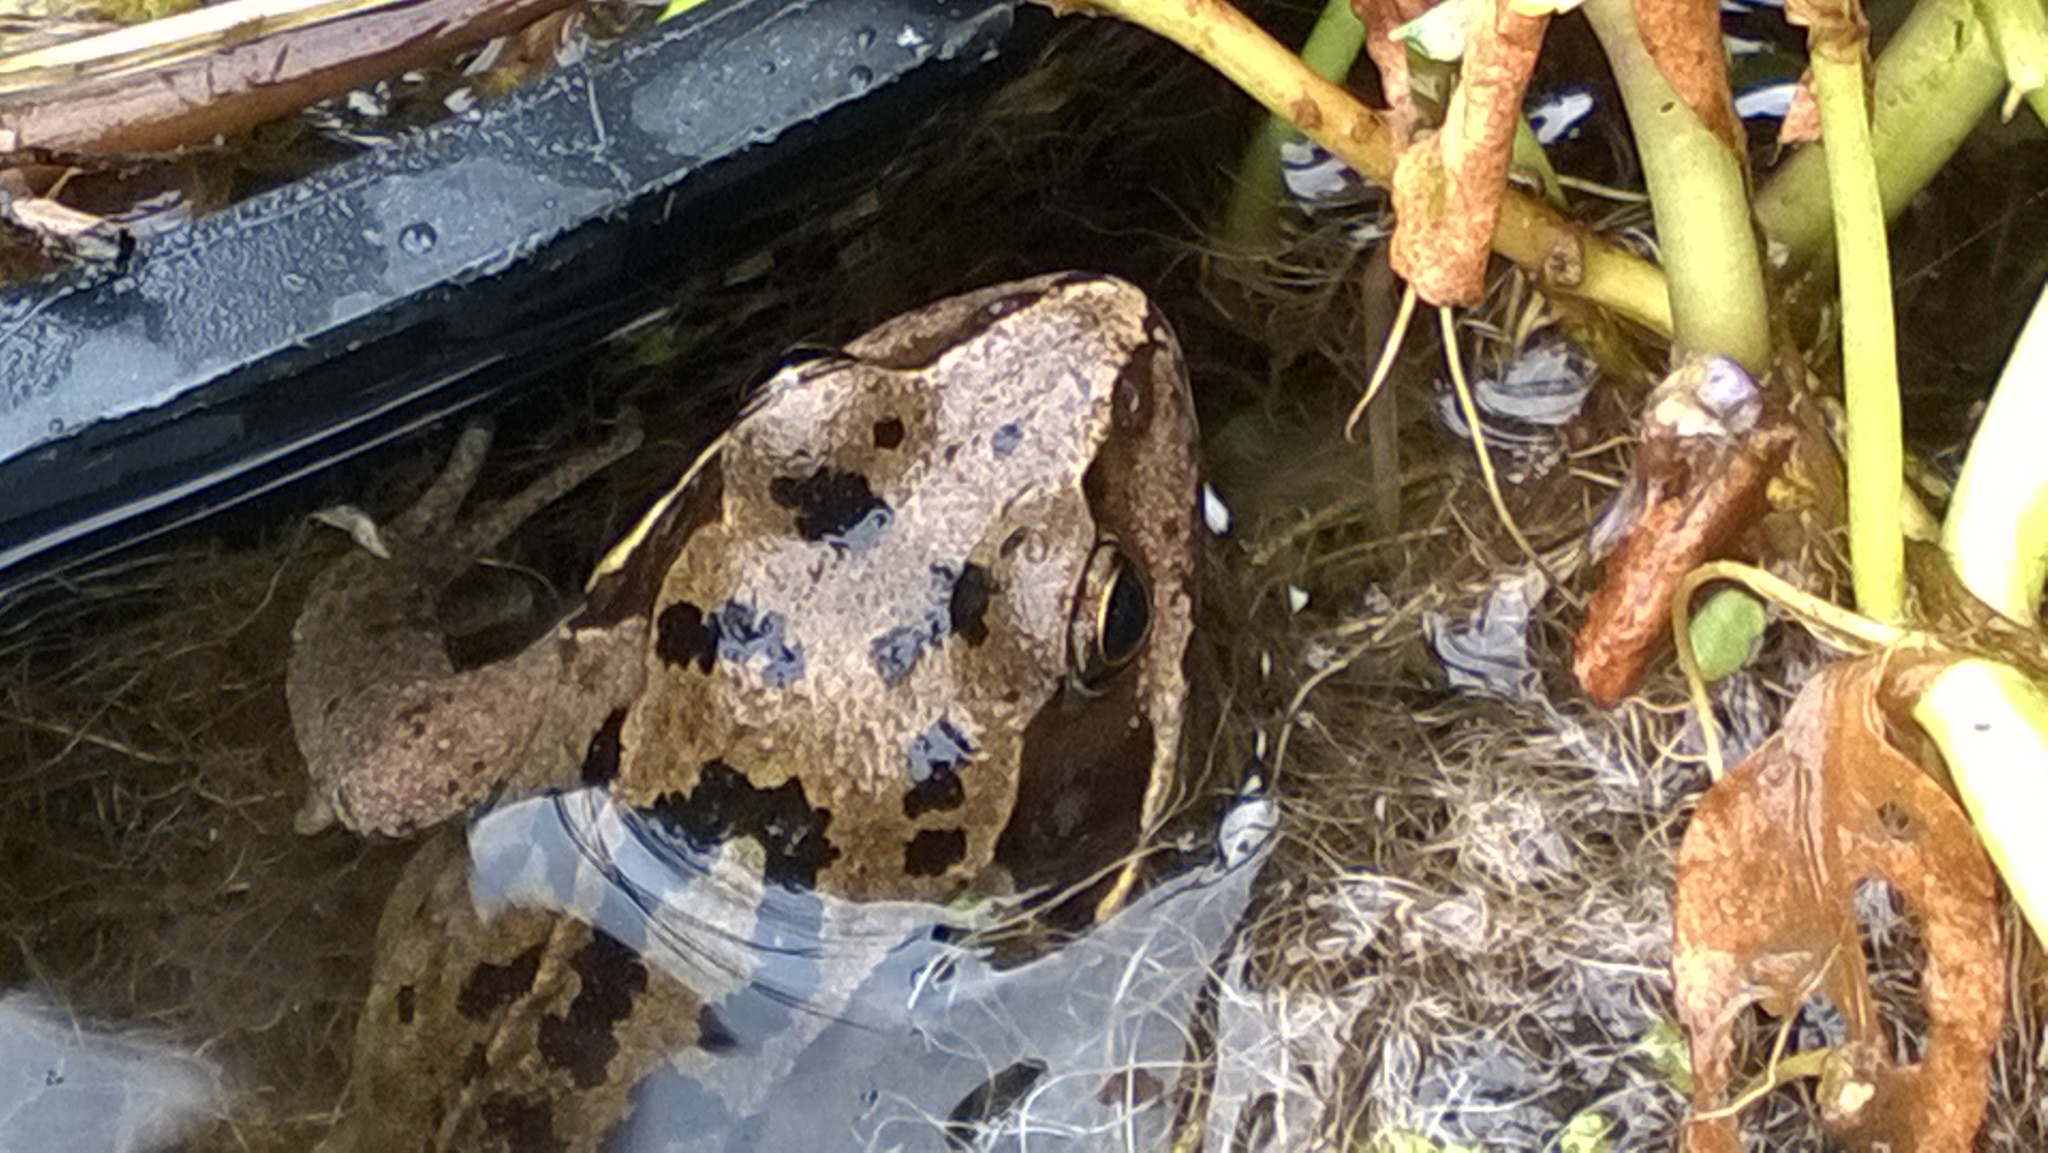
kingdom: Animalia
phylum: Chordata
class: Amphibia
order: Anura
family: Ranidae
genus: Rana
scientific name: Rana temporaria
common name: Common frog
